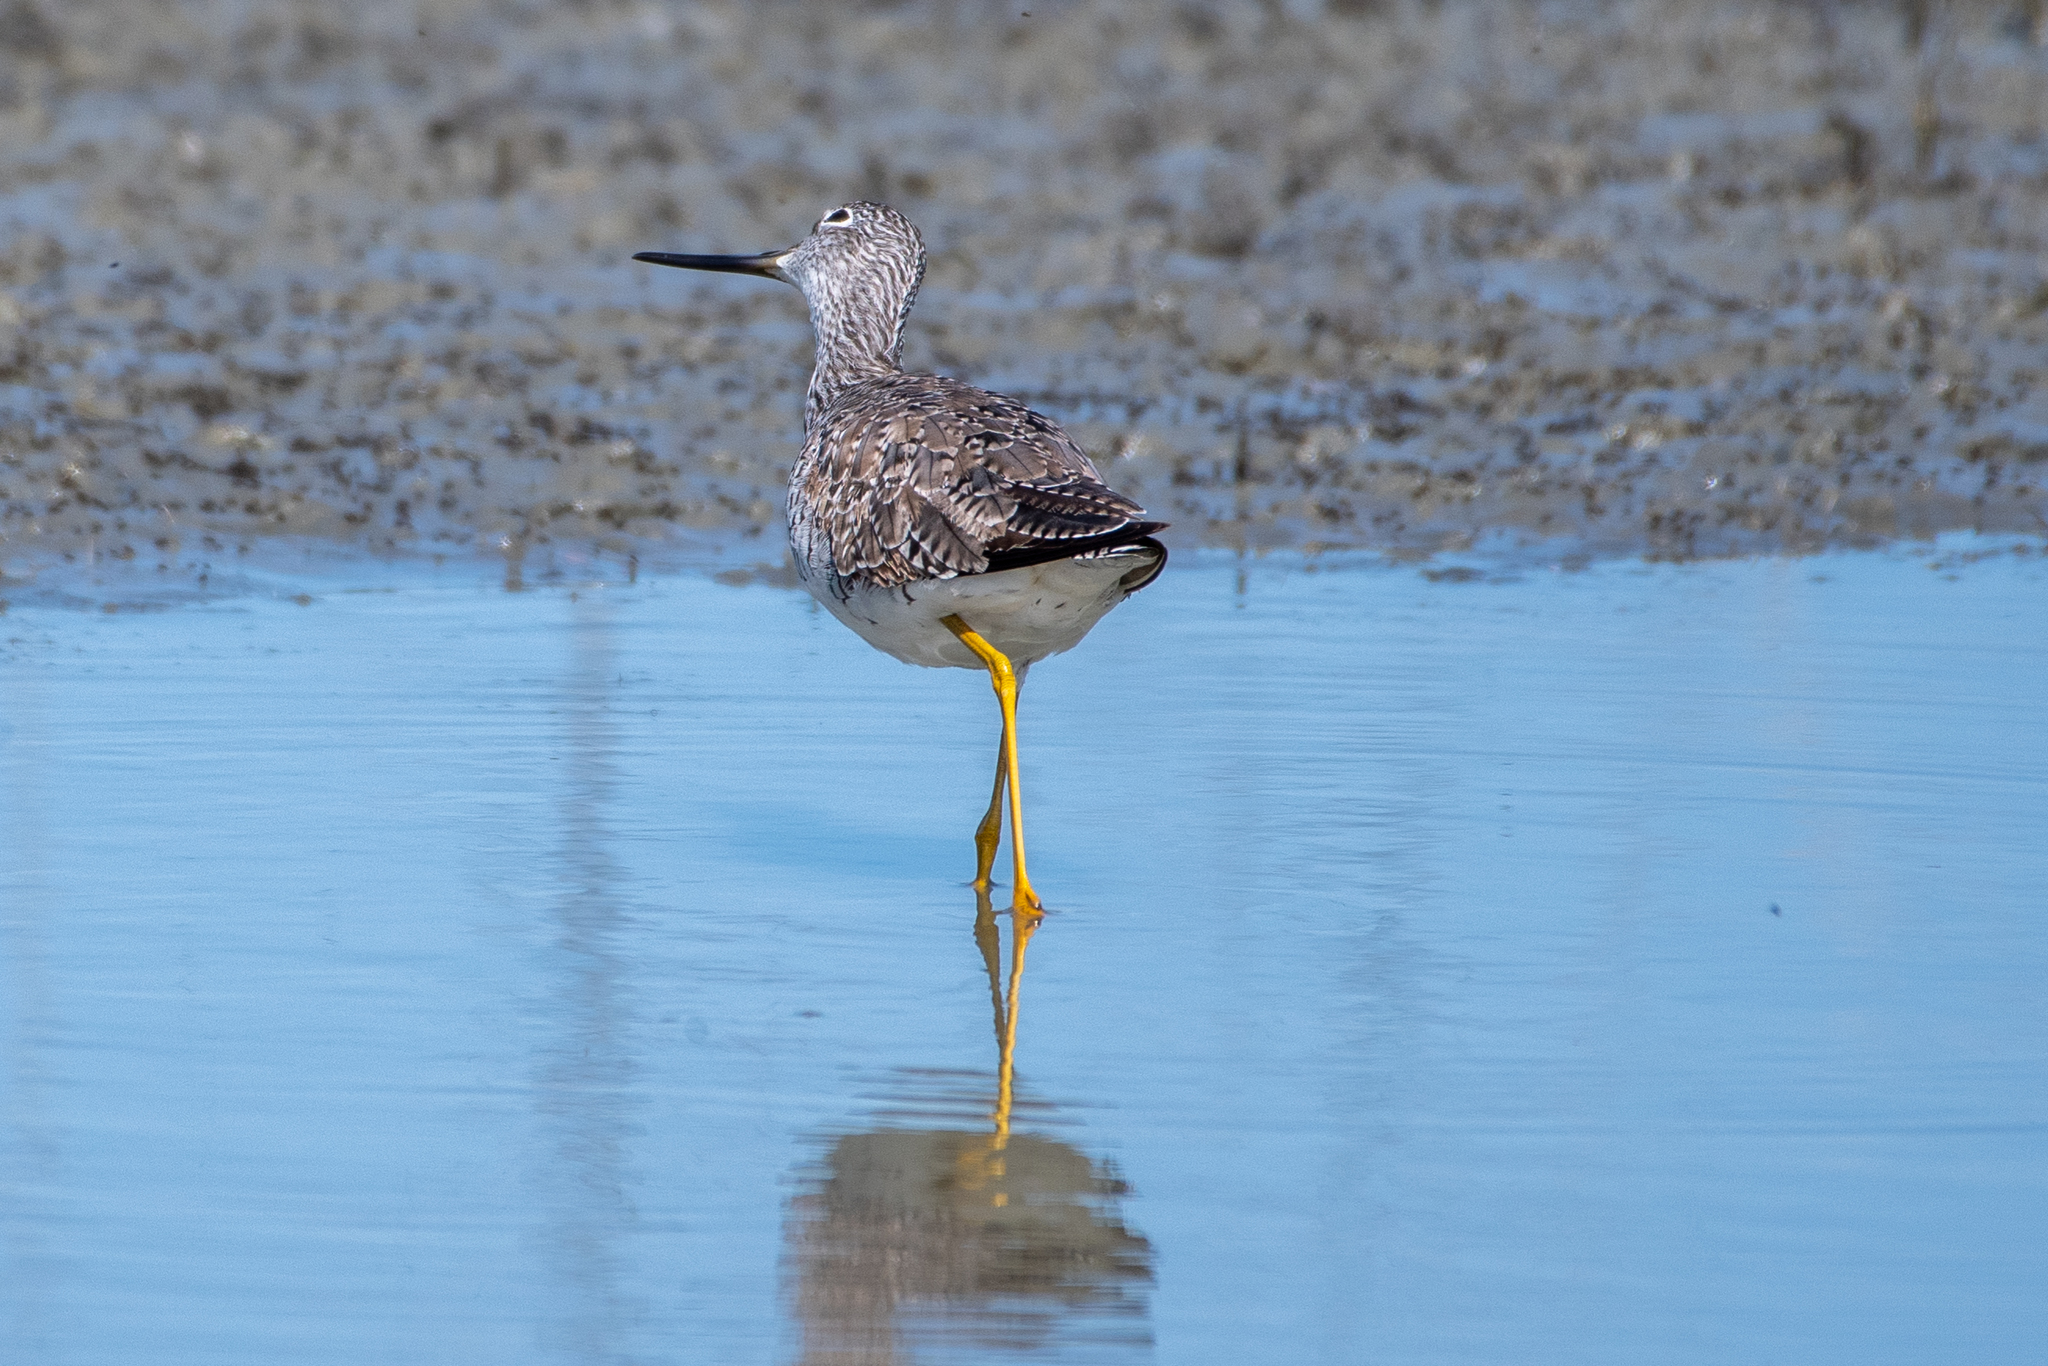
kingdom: Animalia
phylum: Chordata
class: Aves
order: Charadriiformes
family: Scolopacidae
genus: Tringa
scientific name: Tringa melanoleuca
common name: Greater yellowlegs
